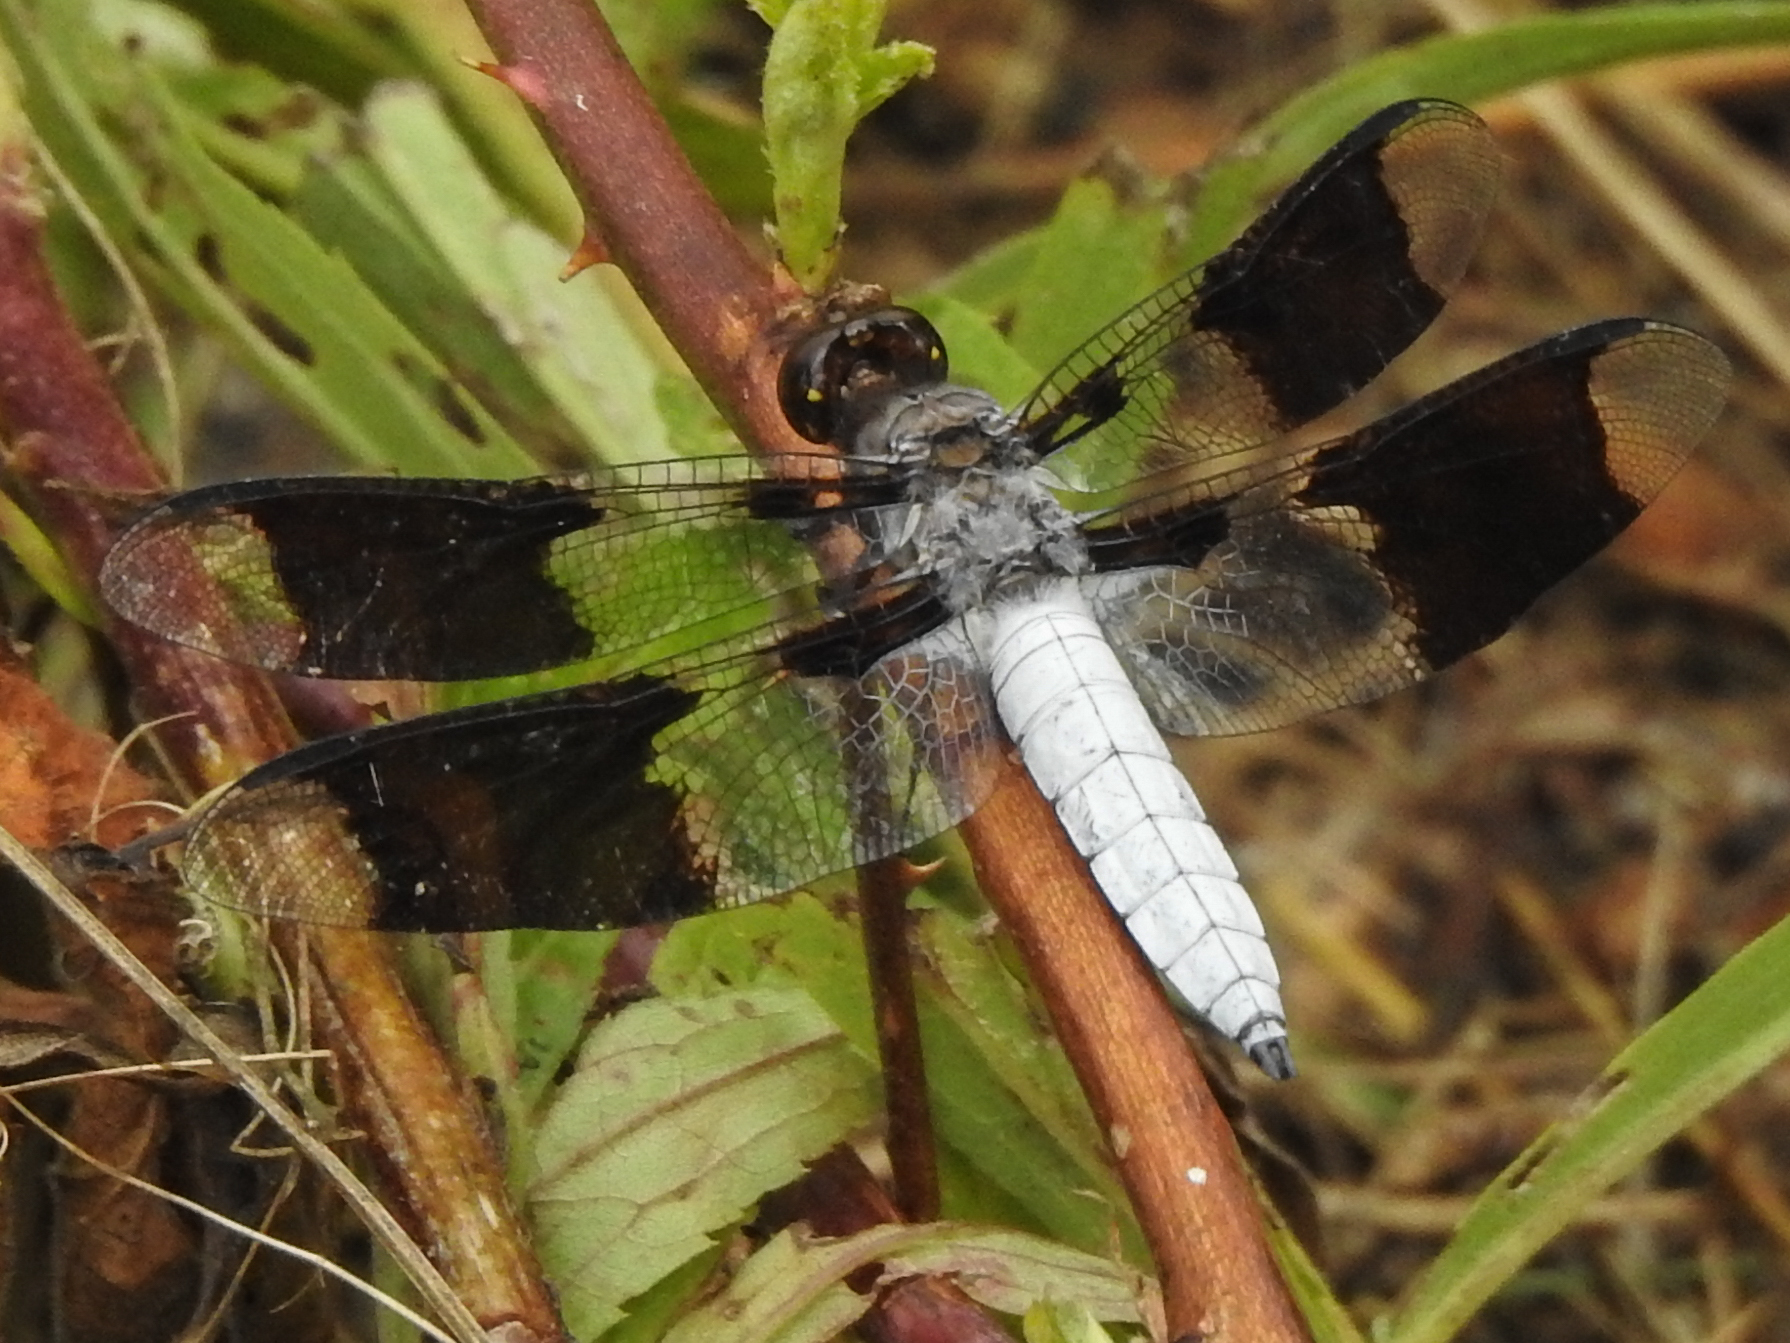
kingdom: Animalia
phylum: Arthropoda
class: Insecta
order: Odonata
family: Libellulidae
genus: Plathemis
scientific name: Plathemis lydia
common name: Common whitetail
